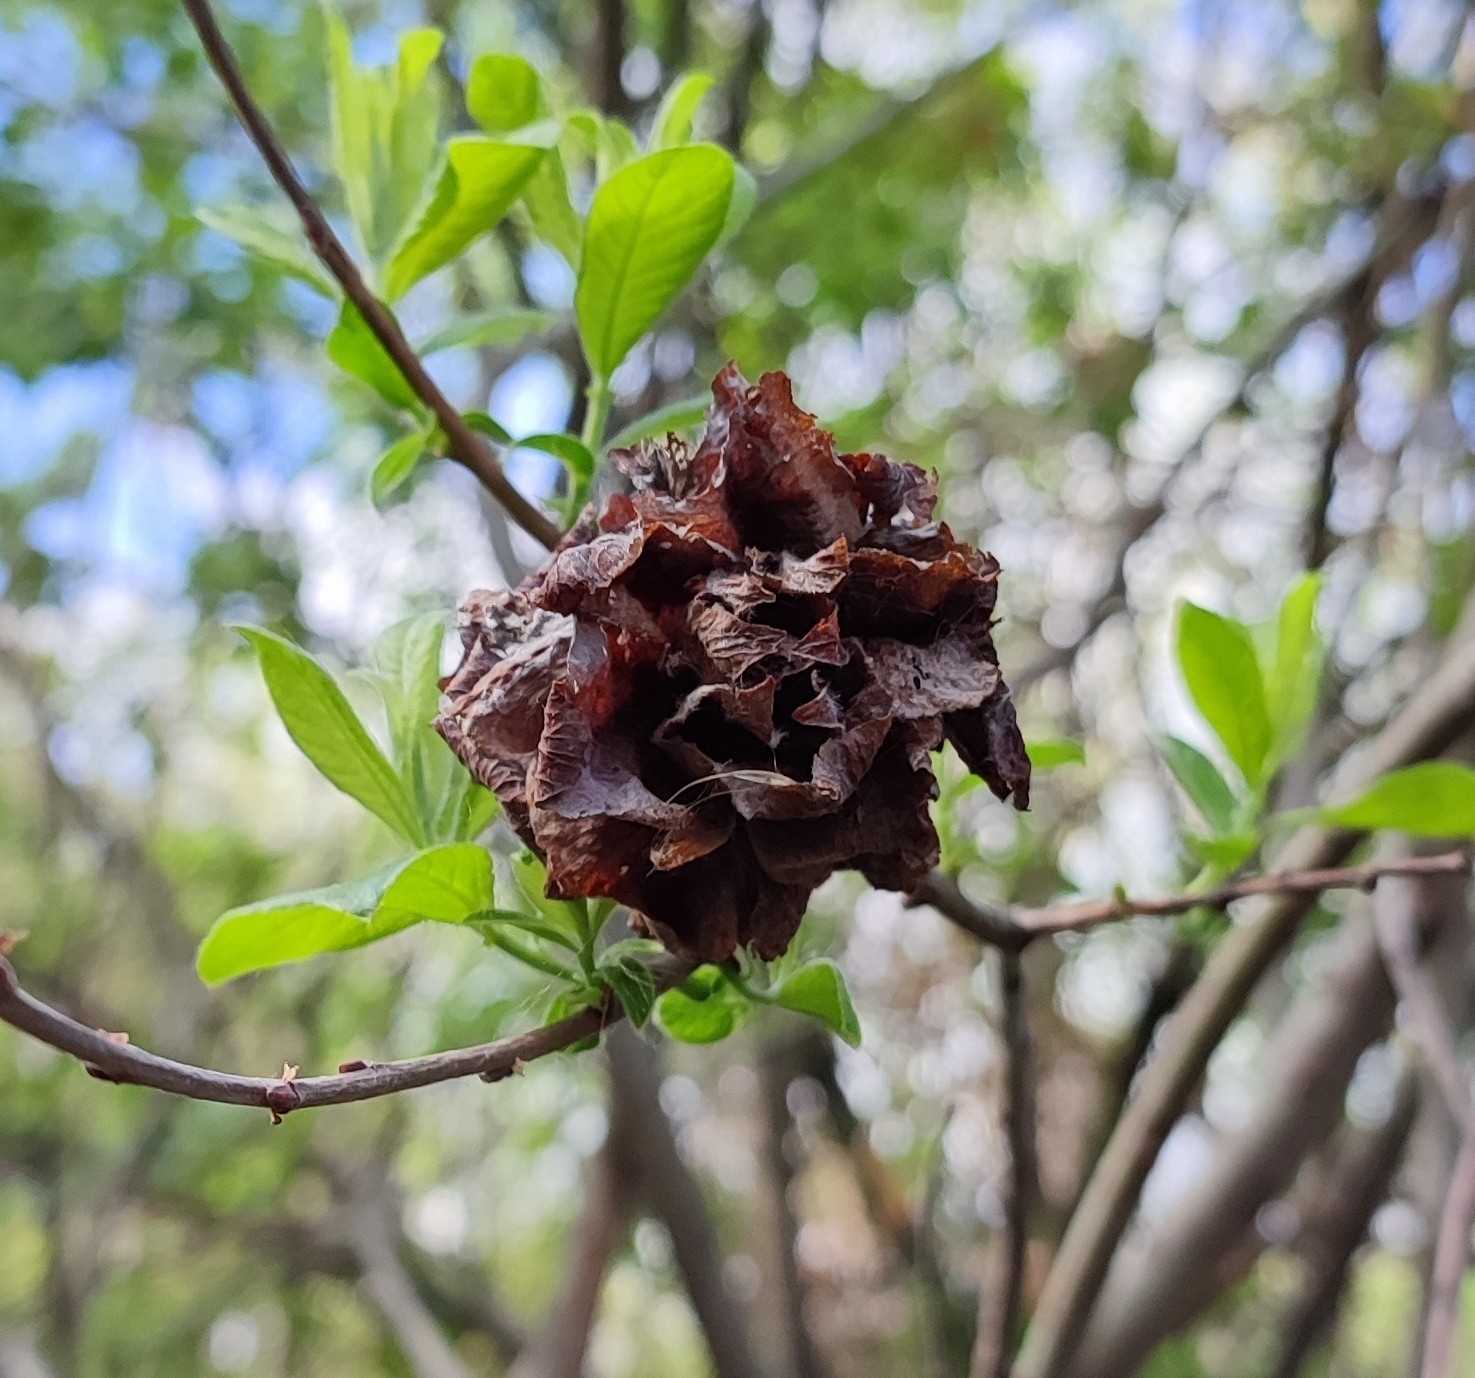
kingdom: Animalia
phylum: Arthropoda
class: Insecta
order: Diptera
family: Cecidomyiidae
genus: Rabdophaga
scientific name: Rabdophaga rosaria
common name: Willow rose gall midge
